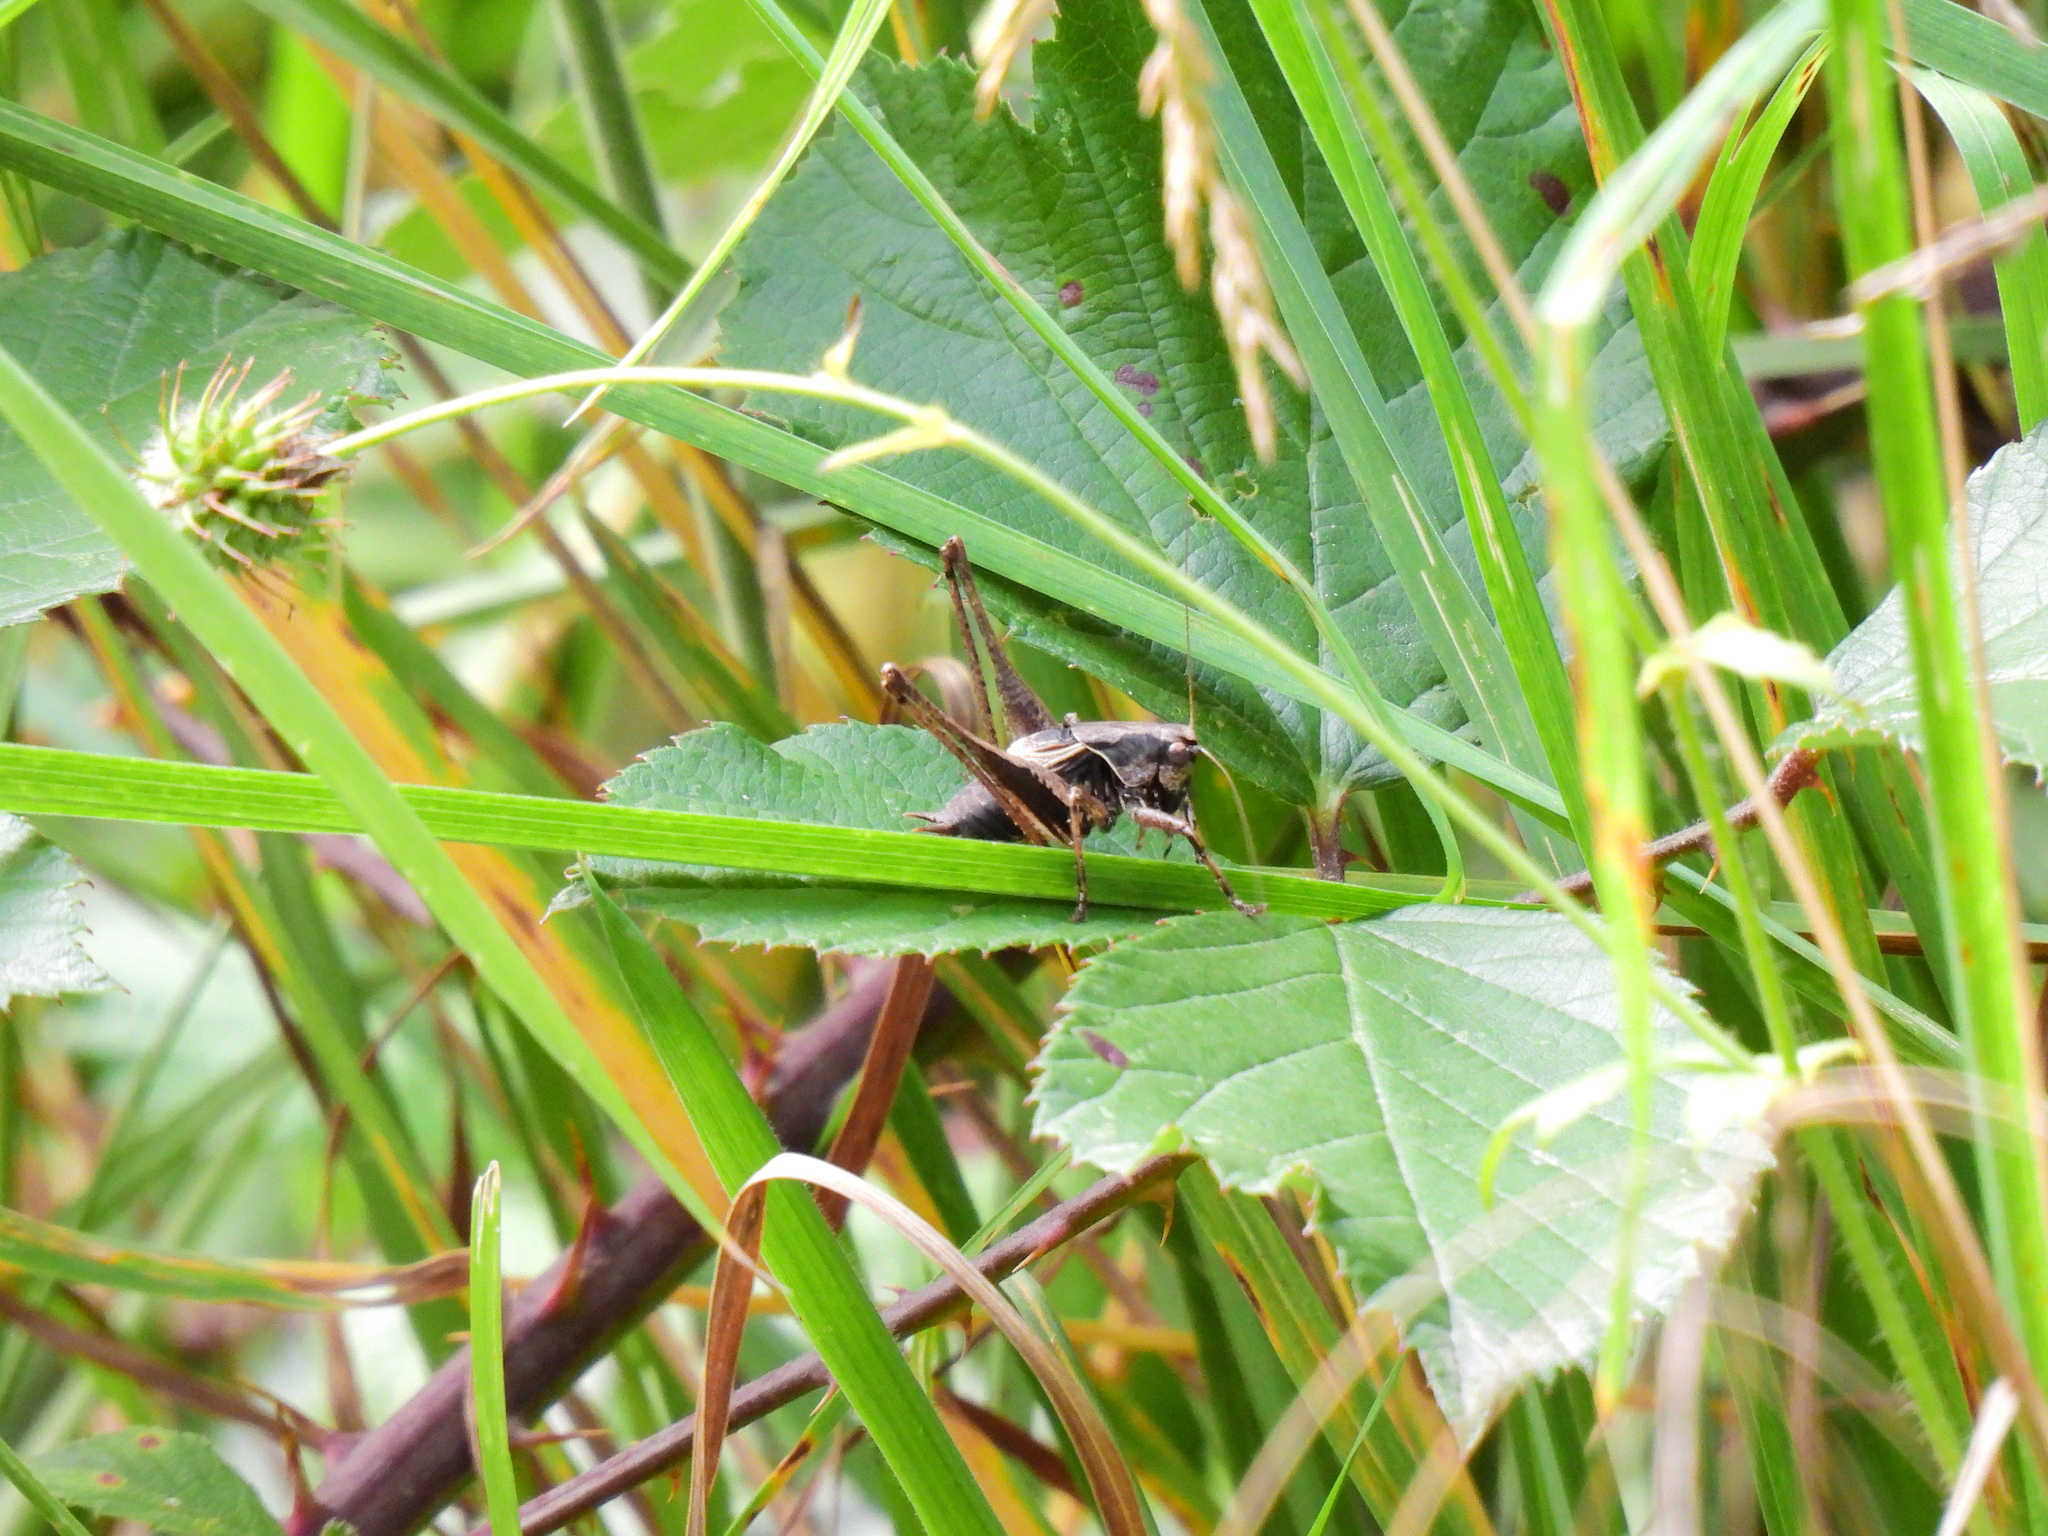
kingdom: Animalia
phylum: Arthropoda
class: Insecta
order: Orthoptera
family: Tettigoniidae
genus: Pholidoptera
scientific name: Pholidoptera griseoaptera
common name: Dark bush-cricket
